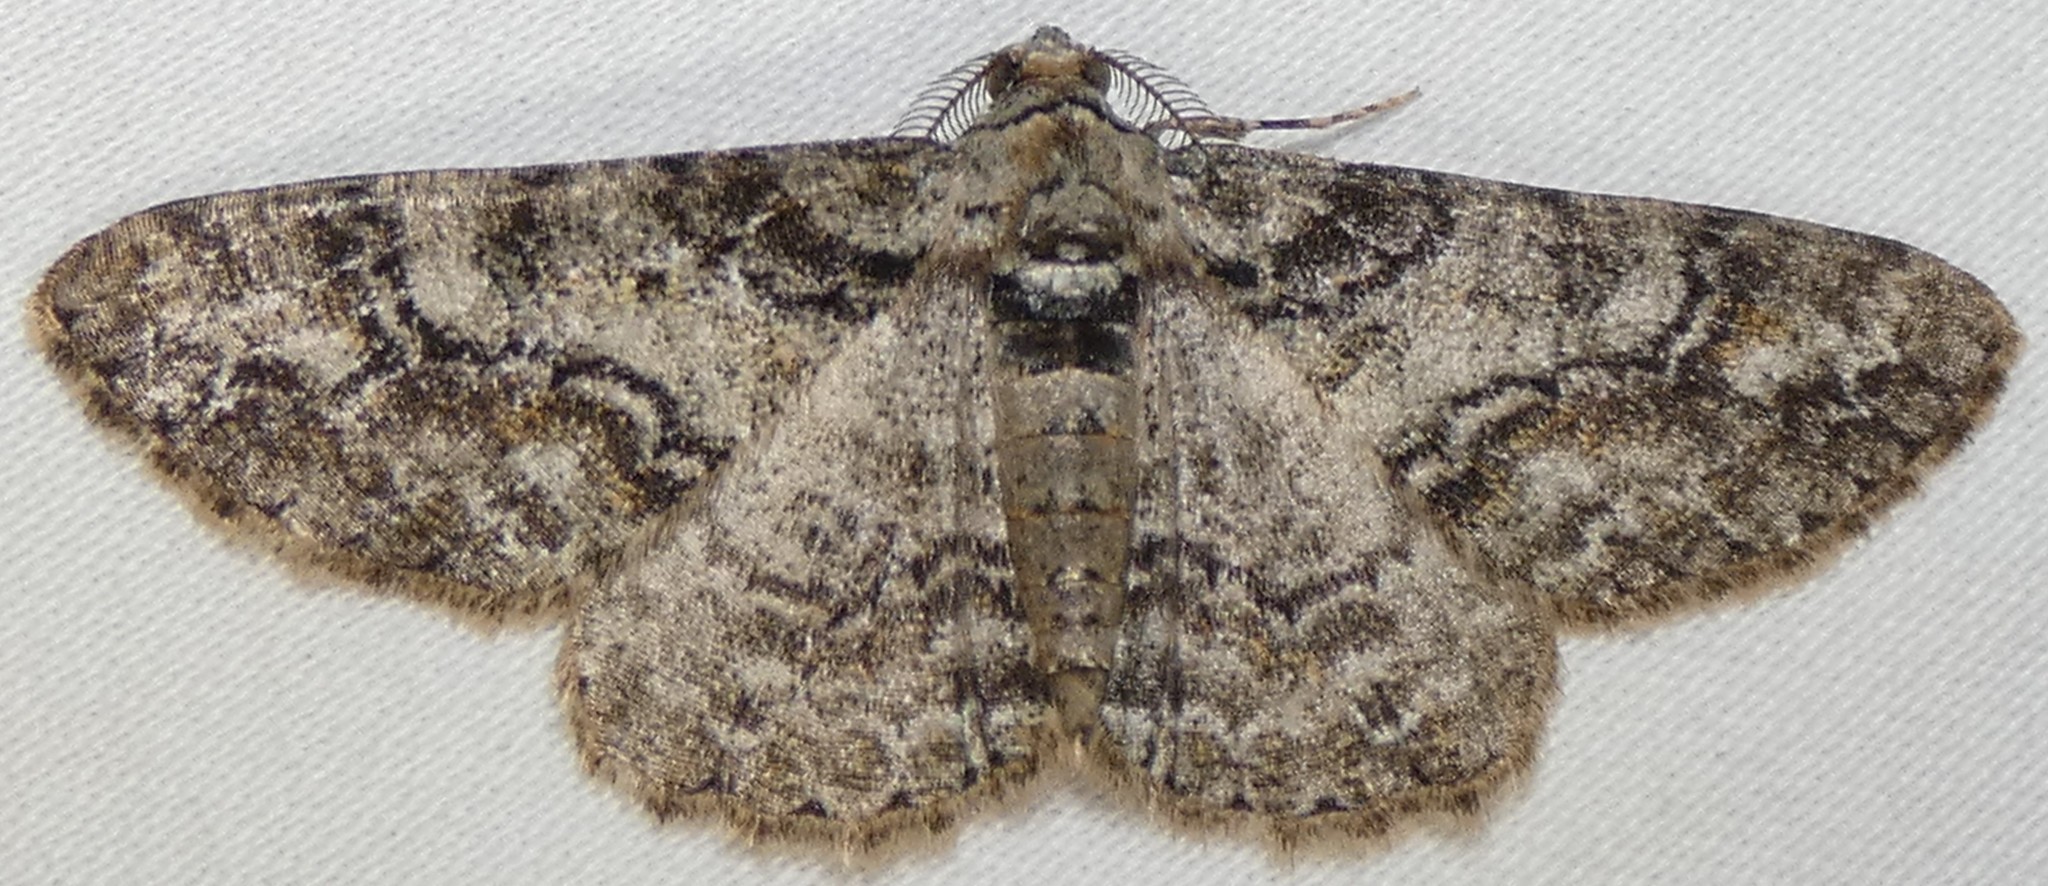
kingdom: Animalia
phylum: Arthropoda
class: Insecta
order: Lepidoptera
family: Geometridae
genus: Cleora
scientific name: Cleora sublunaria
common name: Double-lined gray
